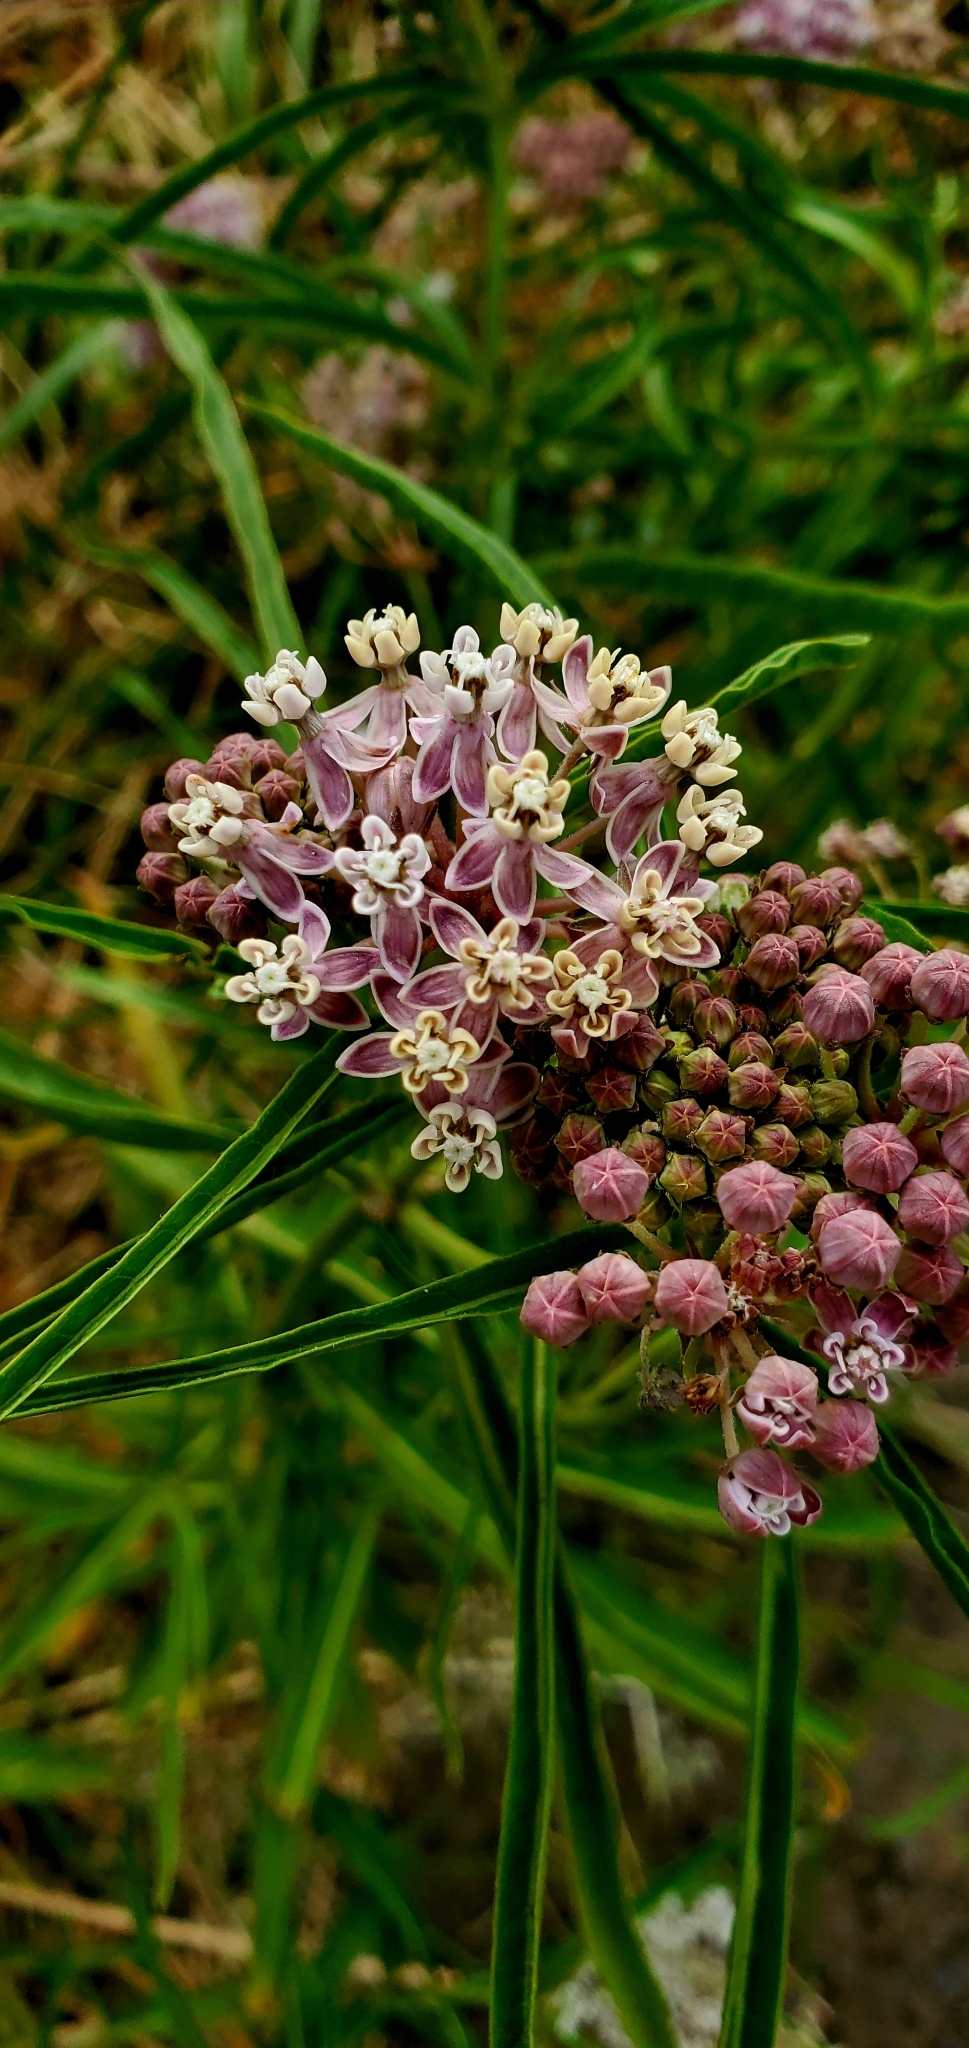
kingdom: Plantae
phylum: Tracheophyta
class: Magnoliopsida
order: Gentianales
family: Apocynaceae
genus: Asclepias
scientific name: Asclepias fascicularis
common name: Mexican milkweed
